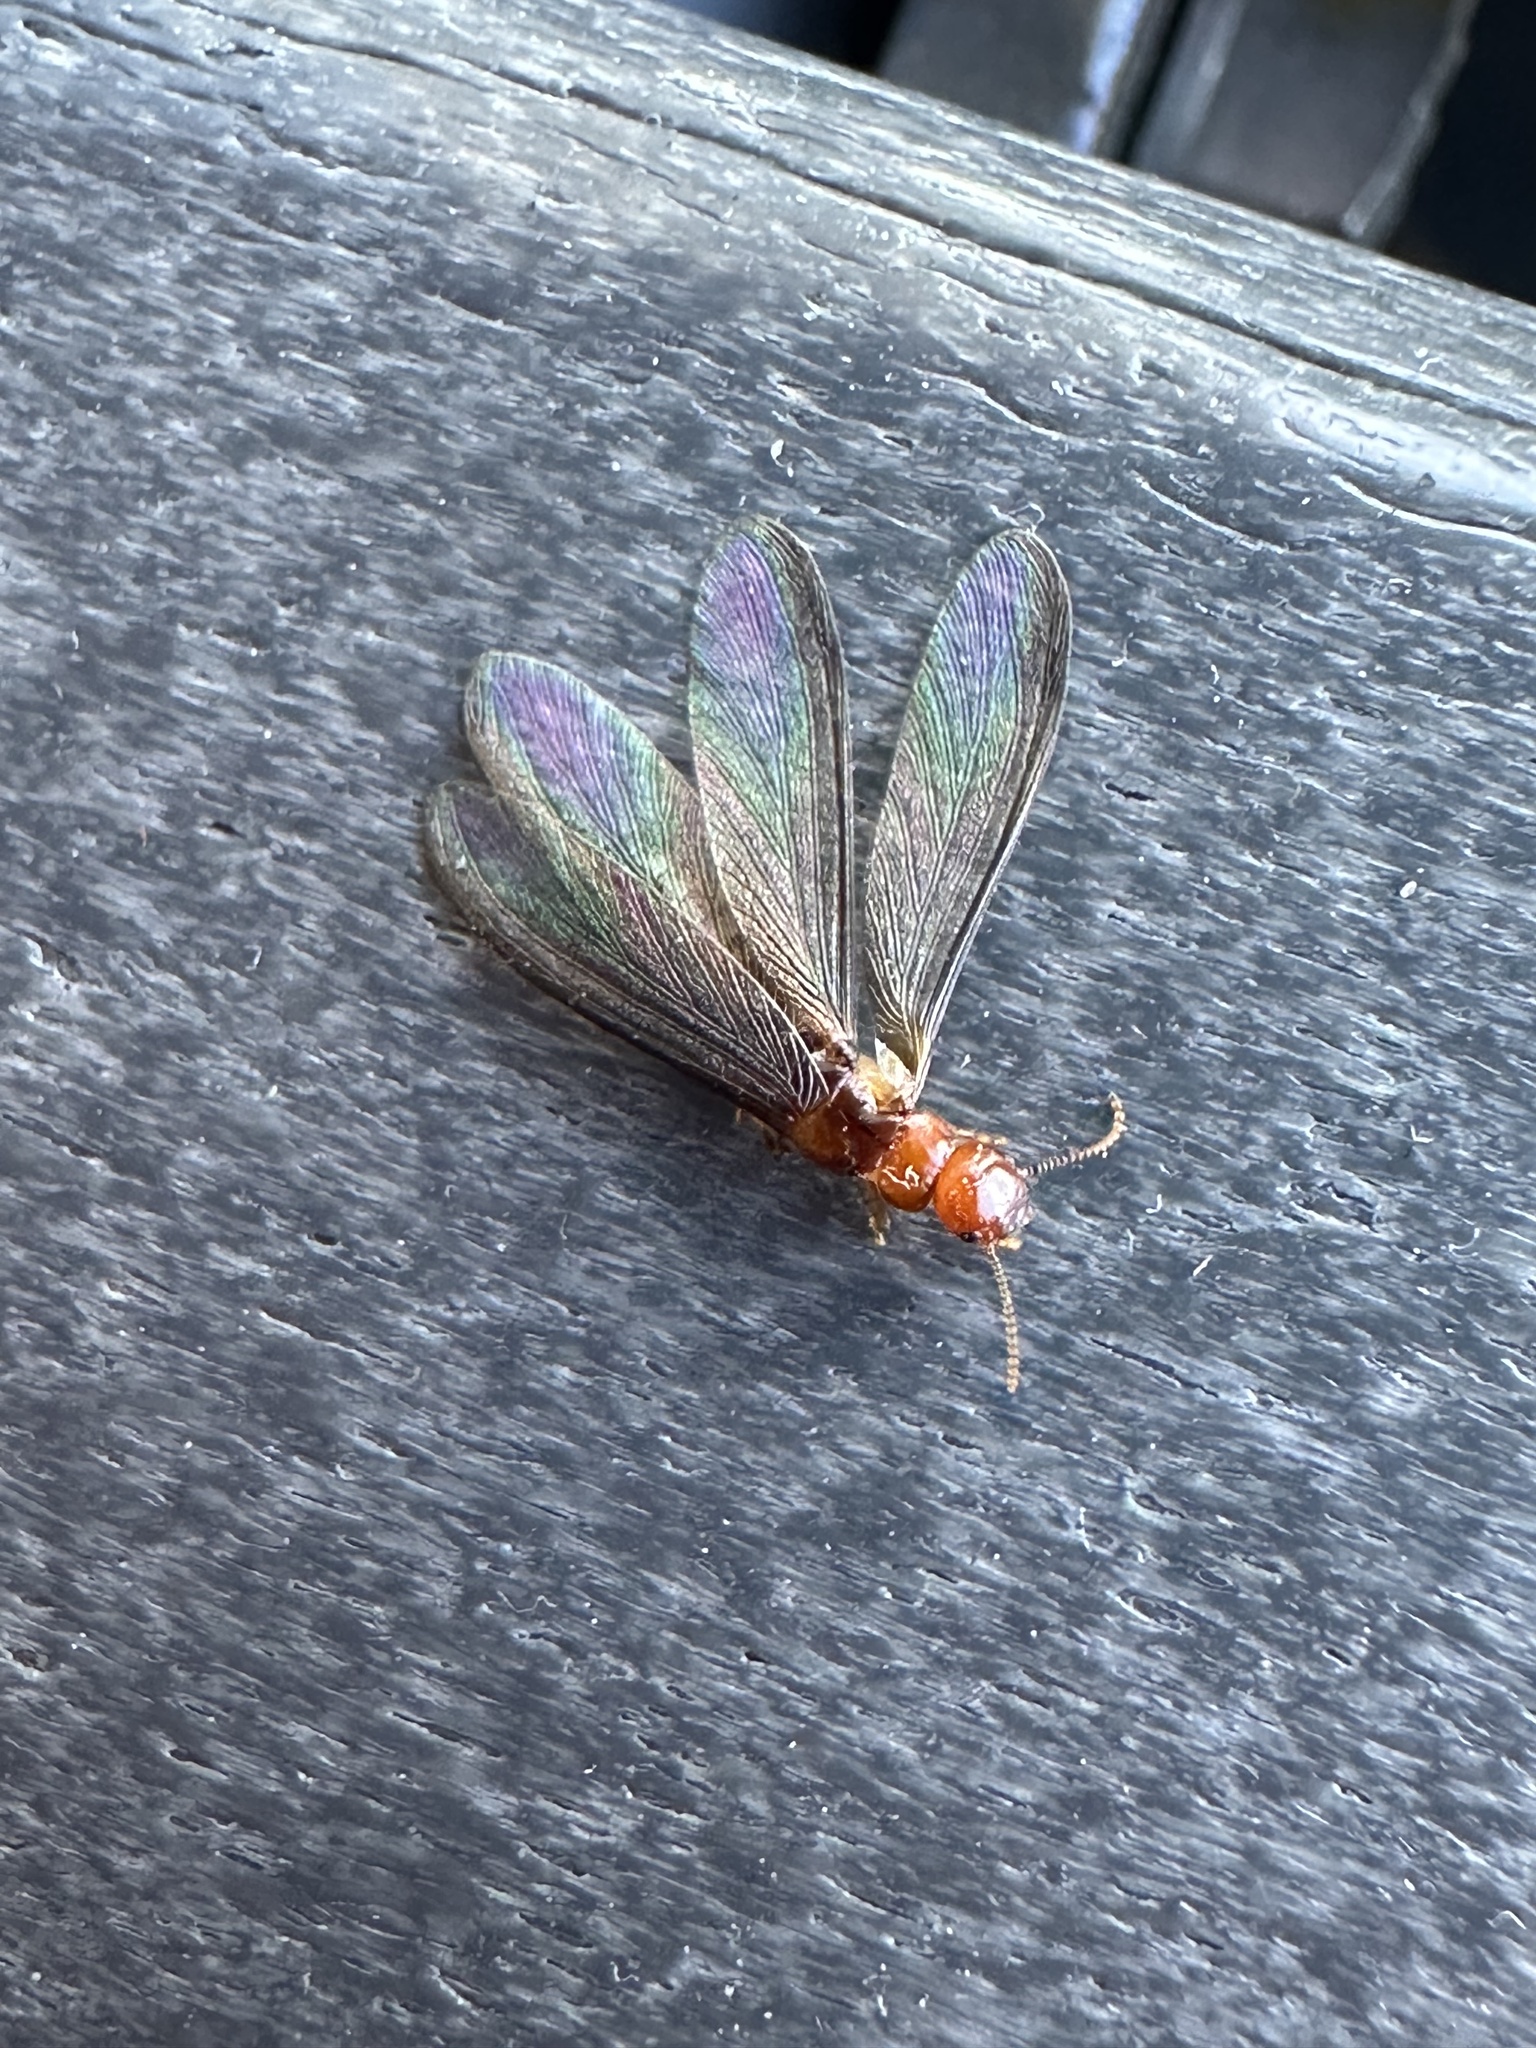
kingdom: Animalia
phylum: Arthropoda
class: Insecta
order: Blattodea
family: Kalotermitidae
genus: Incisitermes
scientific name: Incisitermes minor
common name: Termite
